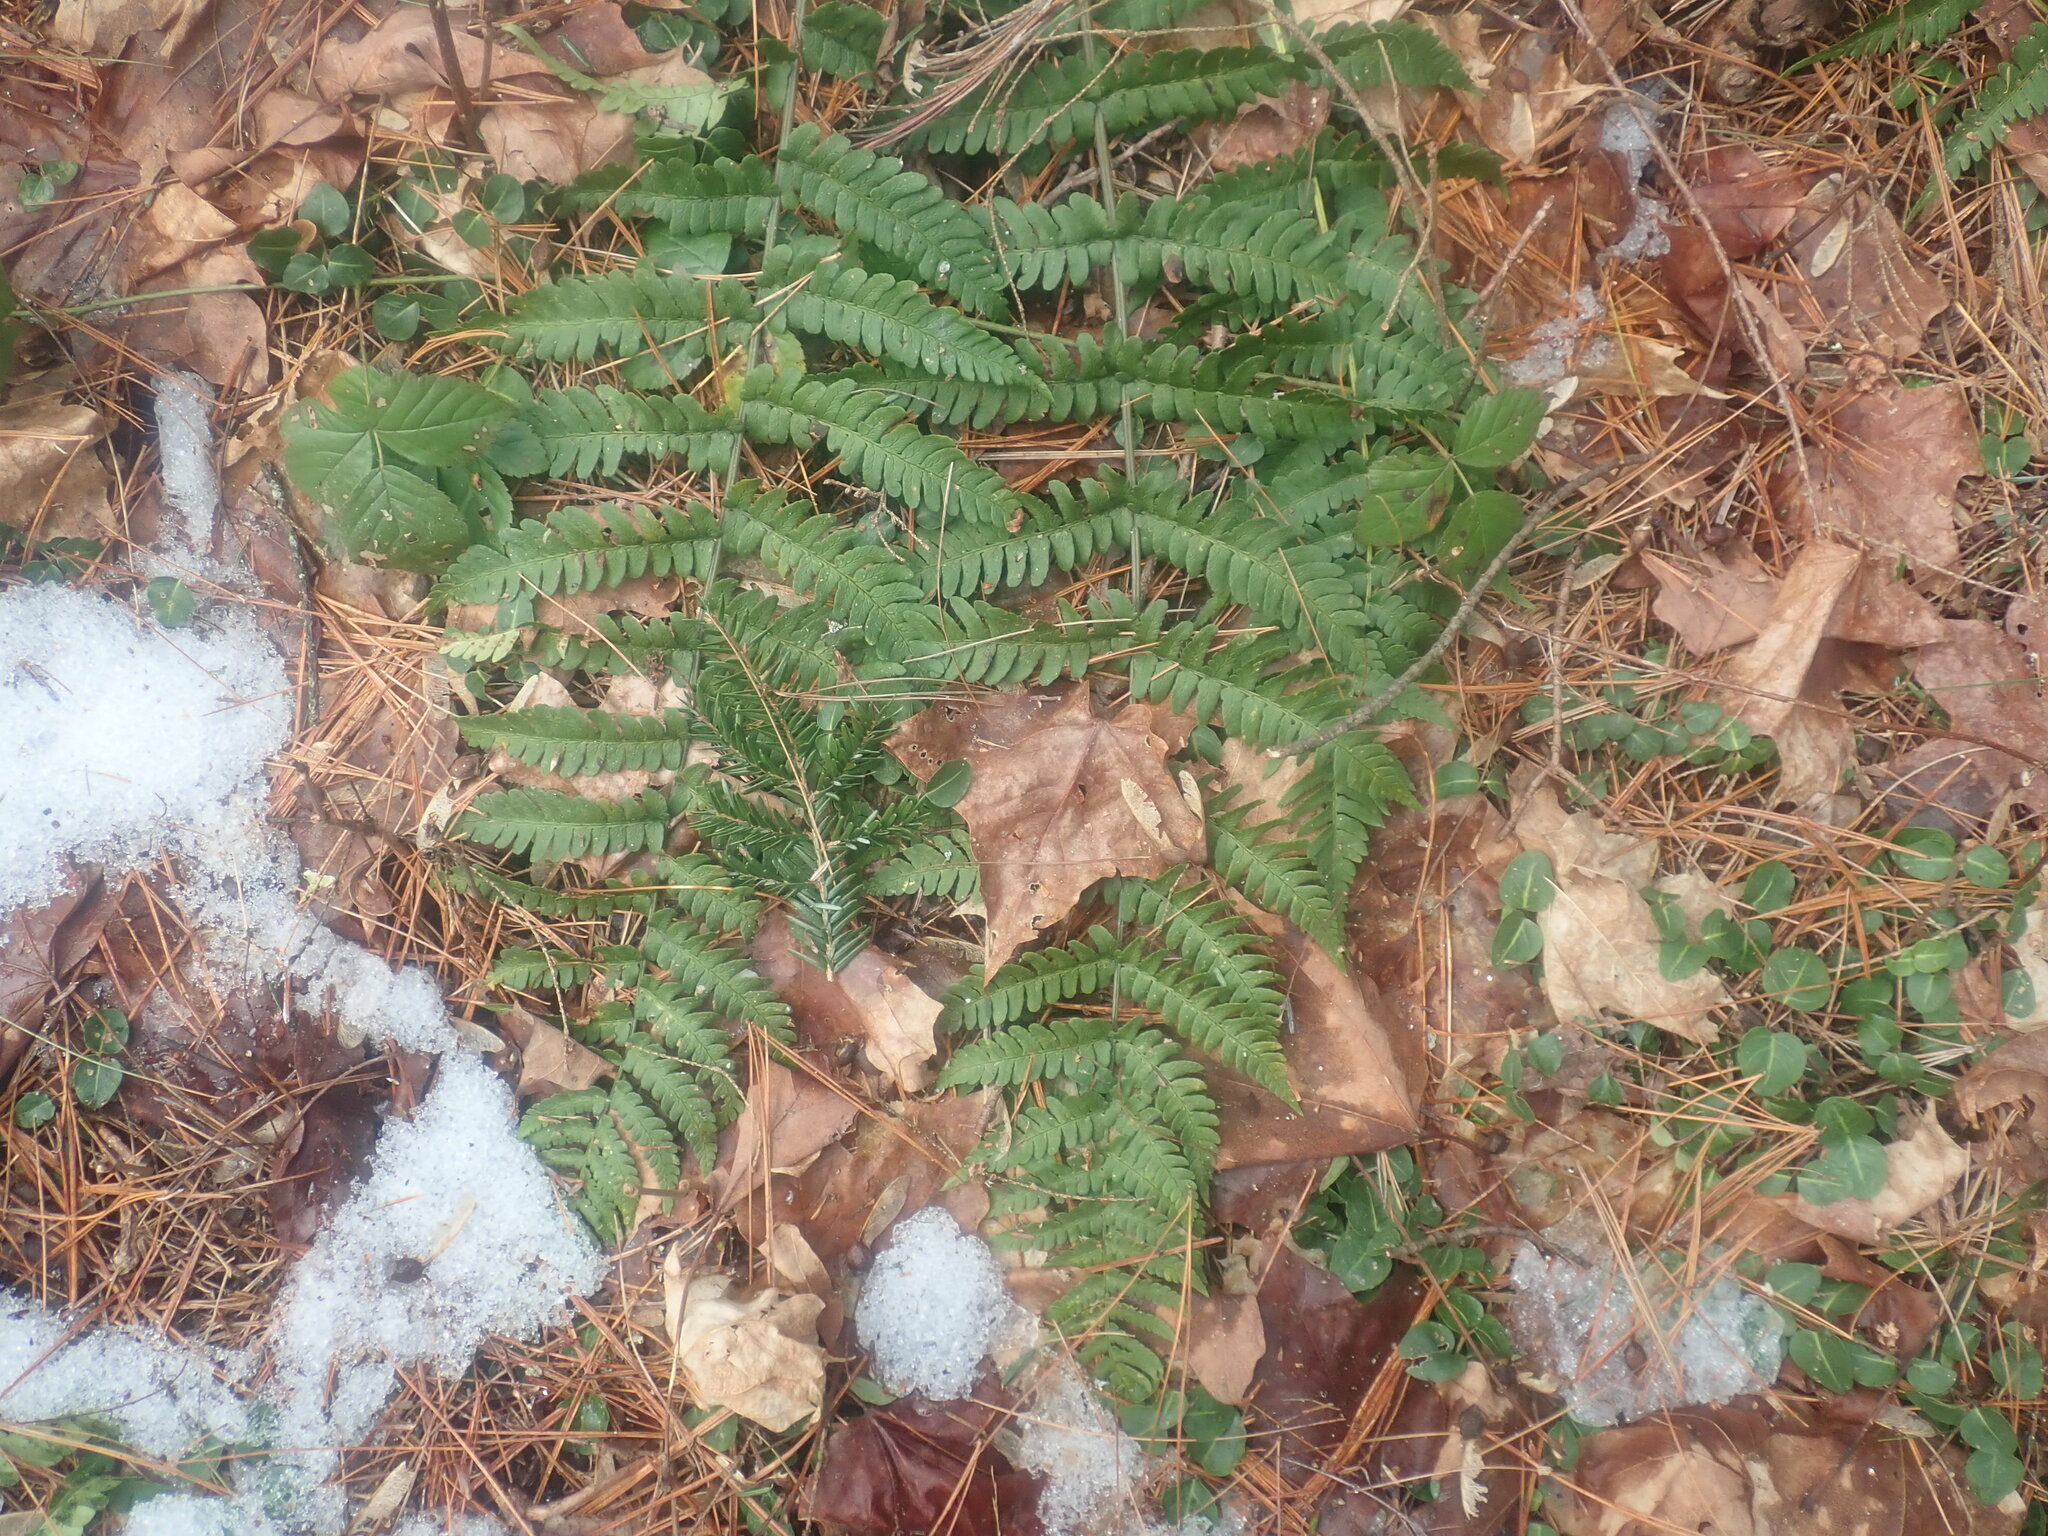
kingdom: Plantae
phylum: Tracheophyta
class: Polypodiopsida
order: Polypodiales
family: Dryopteridaceae
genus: Dryopteris
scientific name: Dryopteris marginalis
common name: Marginal wood fern
